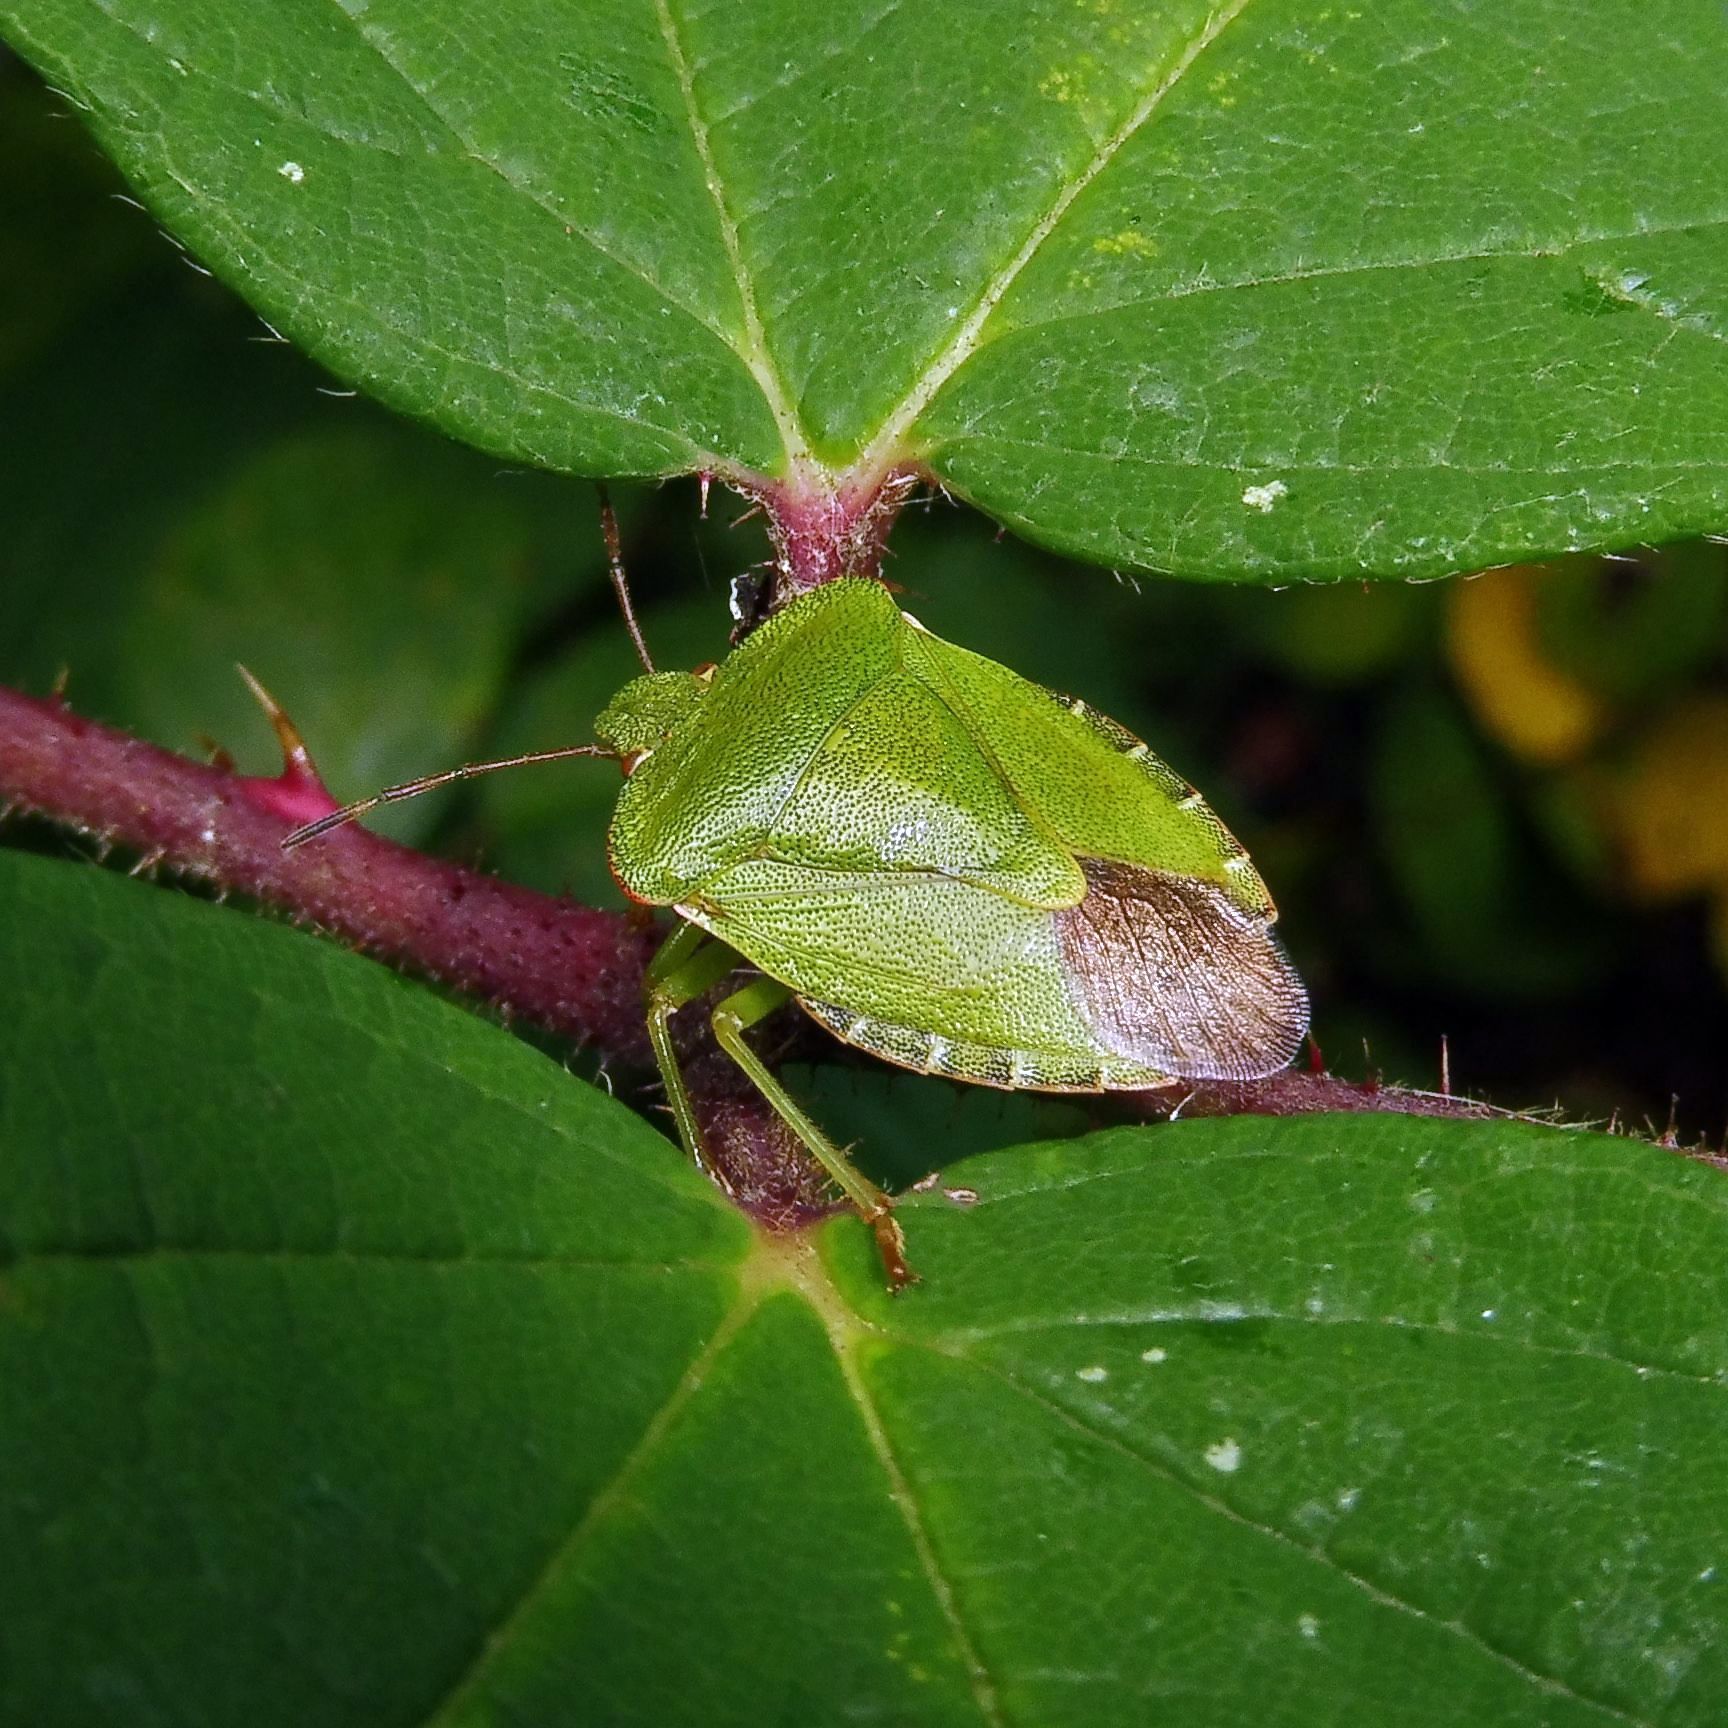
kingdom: Animalia
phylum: Arthropoda
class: Insecta
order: Hemiptera
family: Pentatomidae
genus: Palomena
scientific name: Palomena prasina
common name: Green shieldbug
